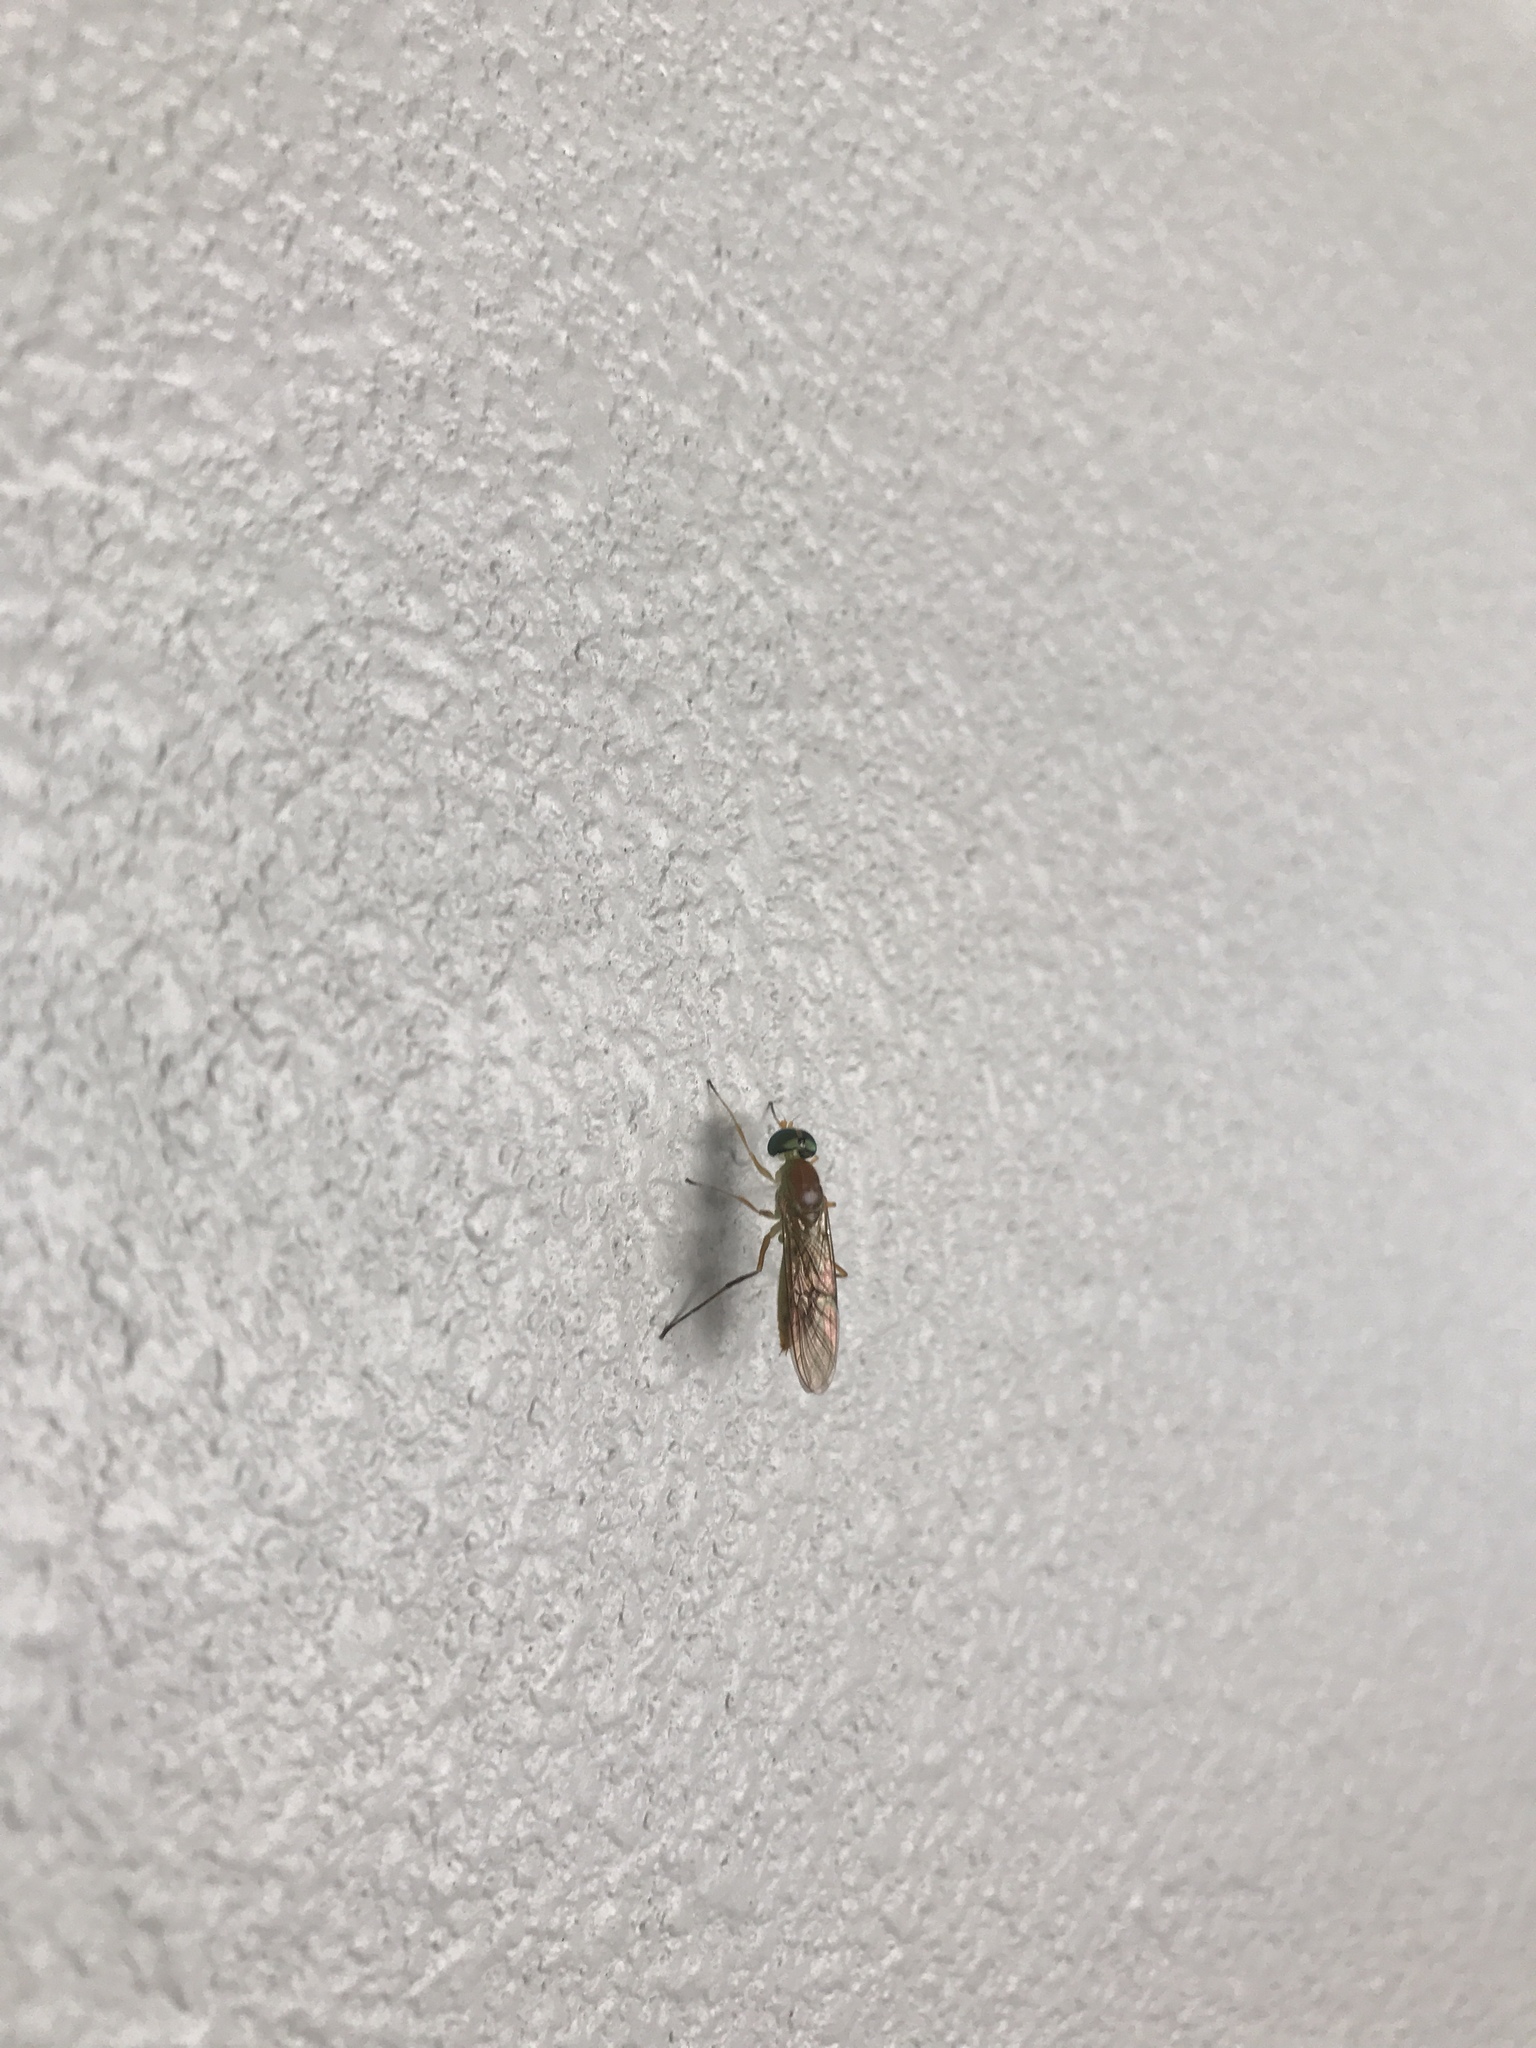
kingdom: Animalia
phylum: Arthropoda
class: Insecta
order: Diptera
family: Stratiomyidae
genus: Ptecticus
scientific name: Ptecticus trivittatus
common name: Compost fly
